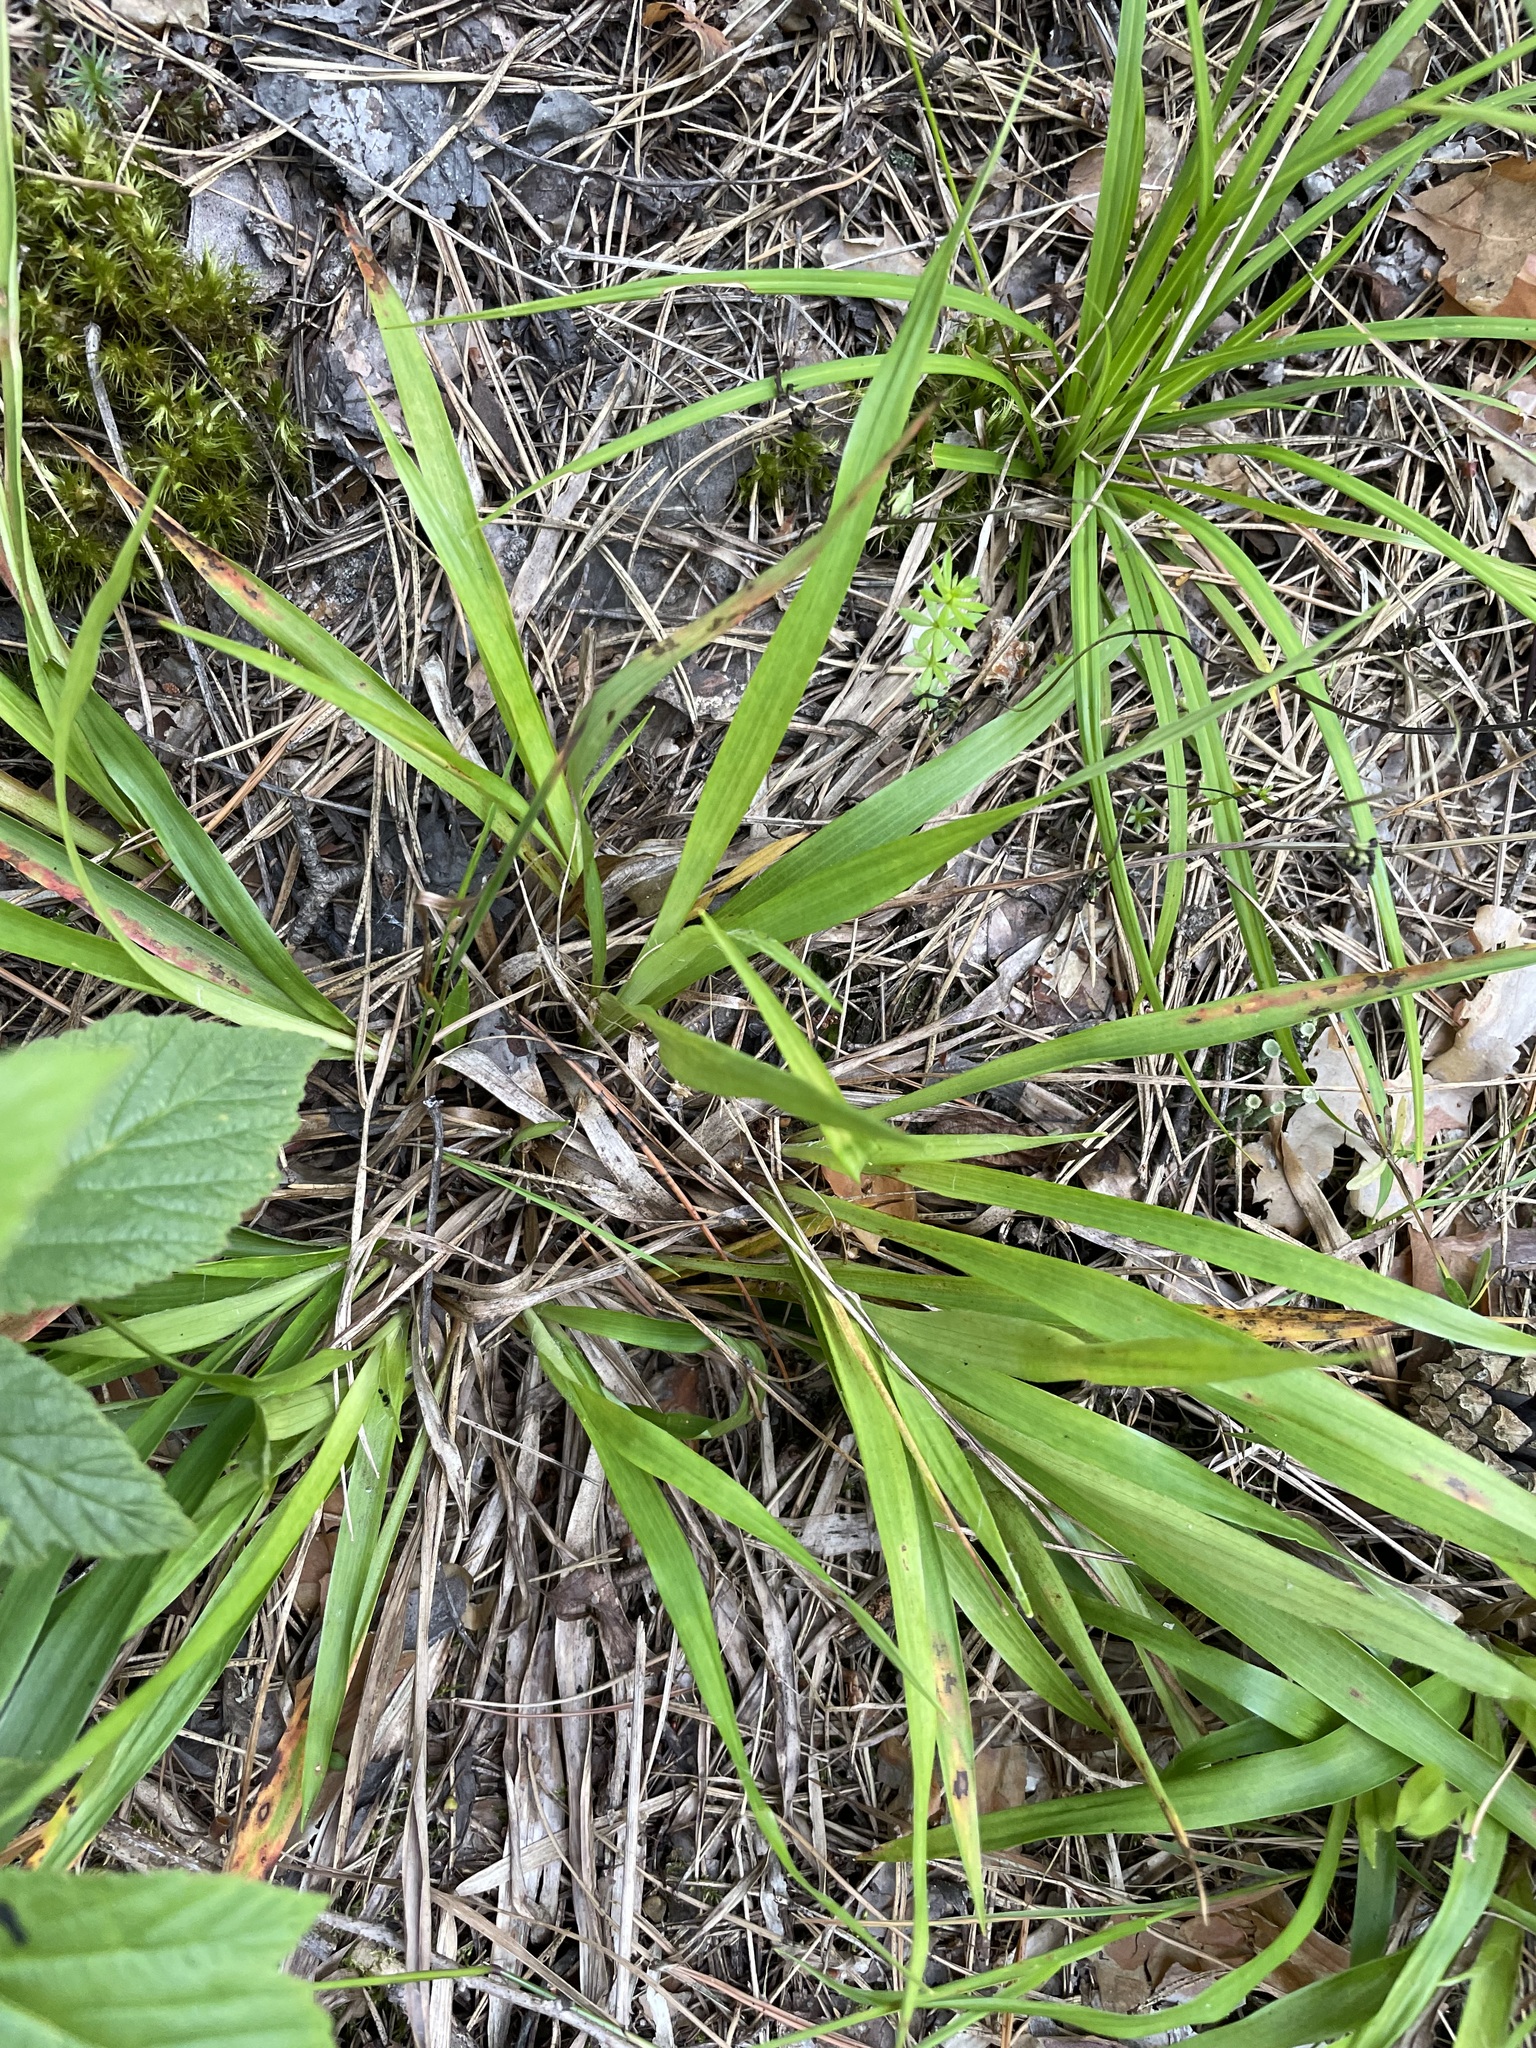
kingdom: Plantae
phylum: Tracheophyta
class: Liliopsida
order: Poales
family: Juncaceae
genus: Luzula
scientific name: Luzula pilosa
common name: Hairy wood-rush
